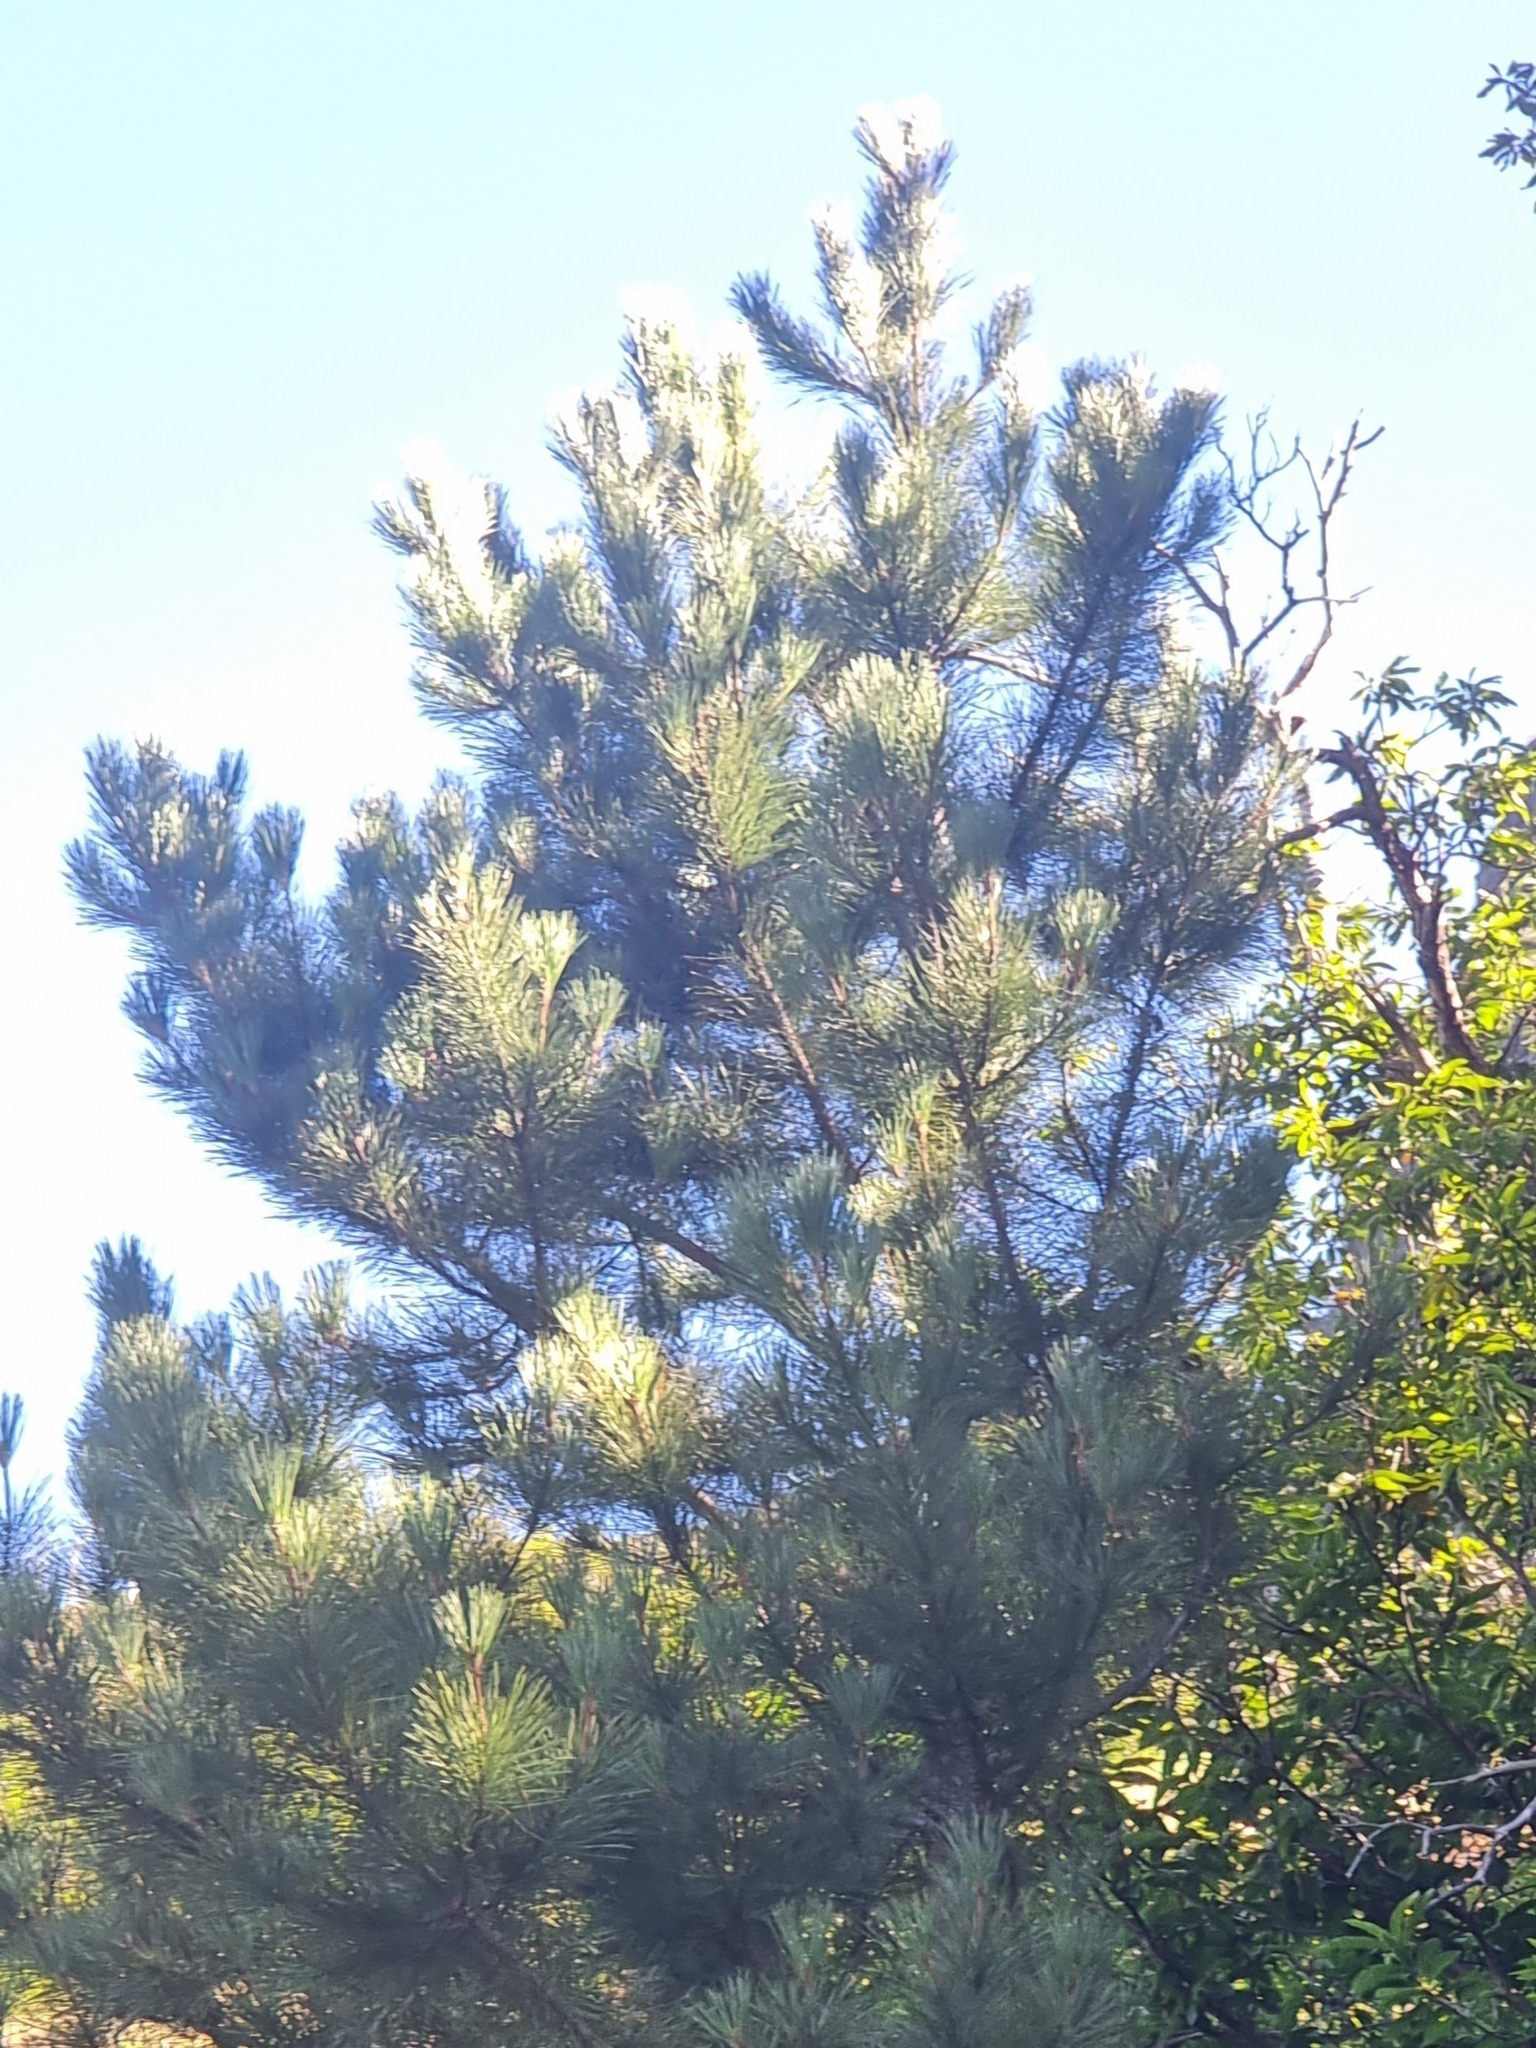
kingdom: Plantae
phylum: Tracheophyta
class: Pinopsida
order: Pinales
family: Pinaceae
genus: Pinus
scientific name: Pinus pinaster
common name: Maritime pine
